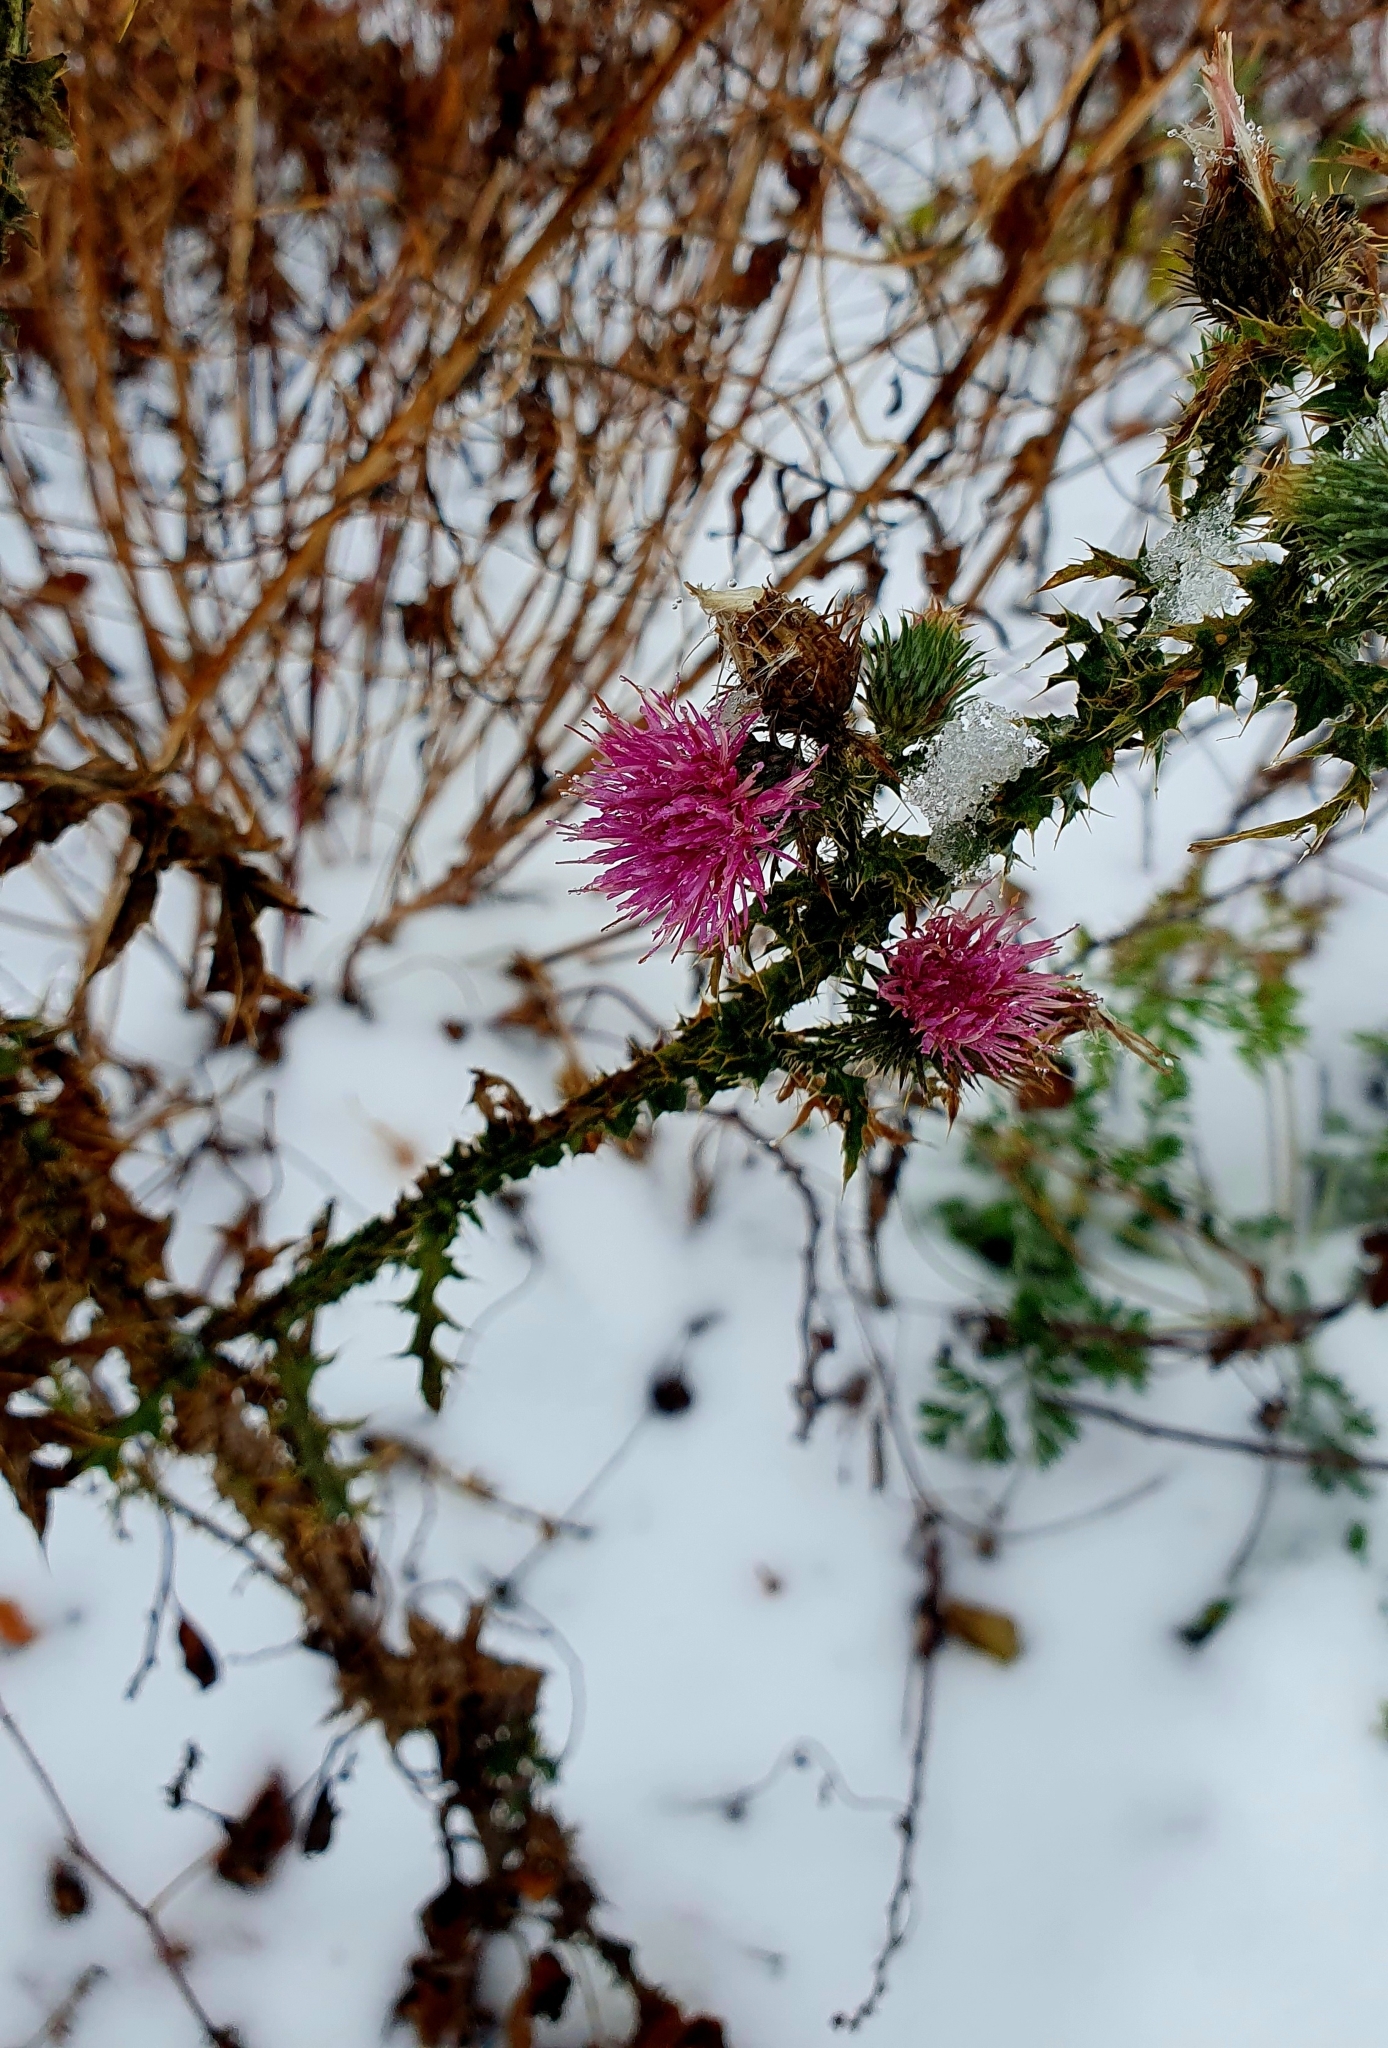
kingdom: Plantae
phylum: Tracheophyta
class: Magnoliopsida
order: Asterales
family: Asteraceae
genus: Carduus
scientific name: Carduus acanthoides
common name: Plumeless thistle
